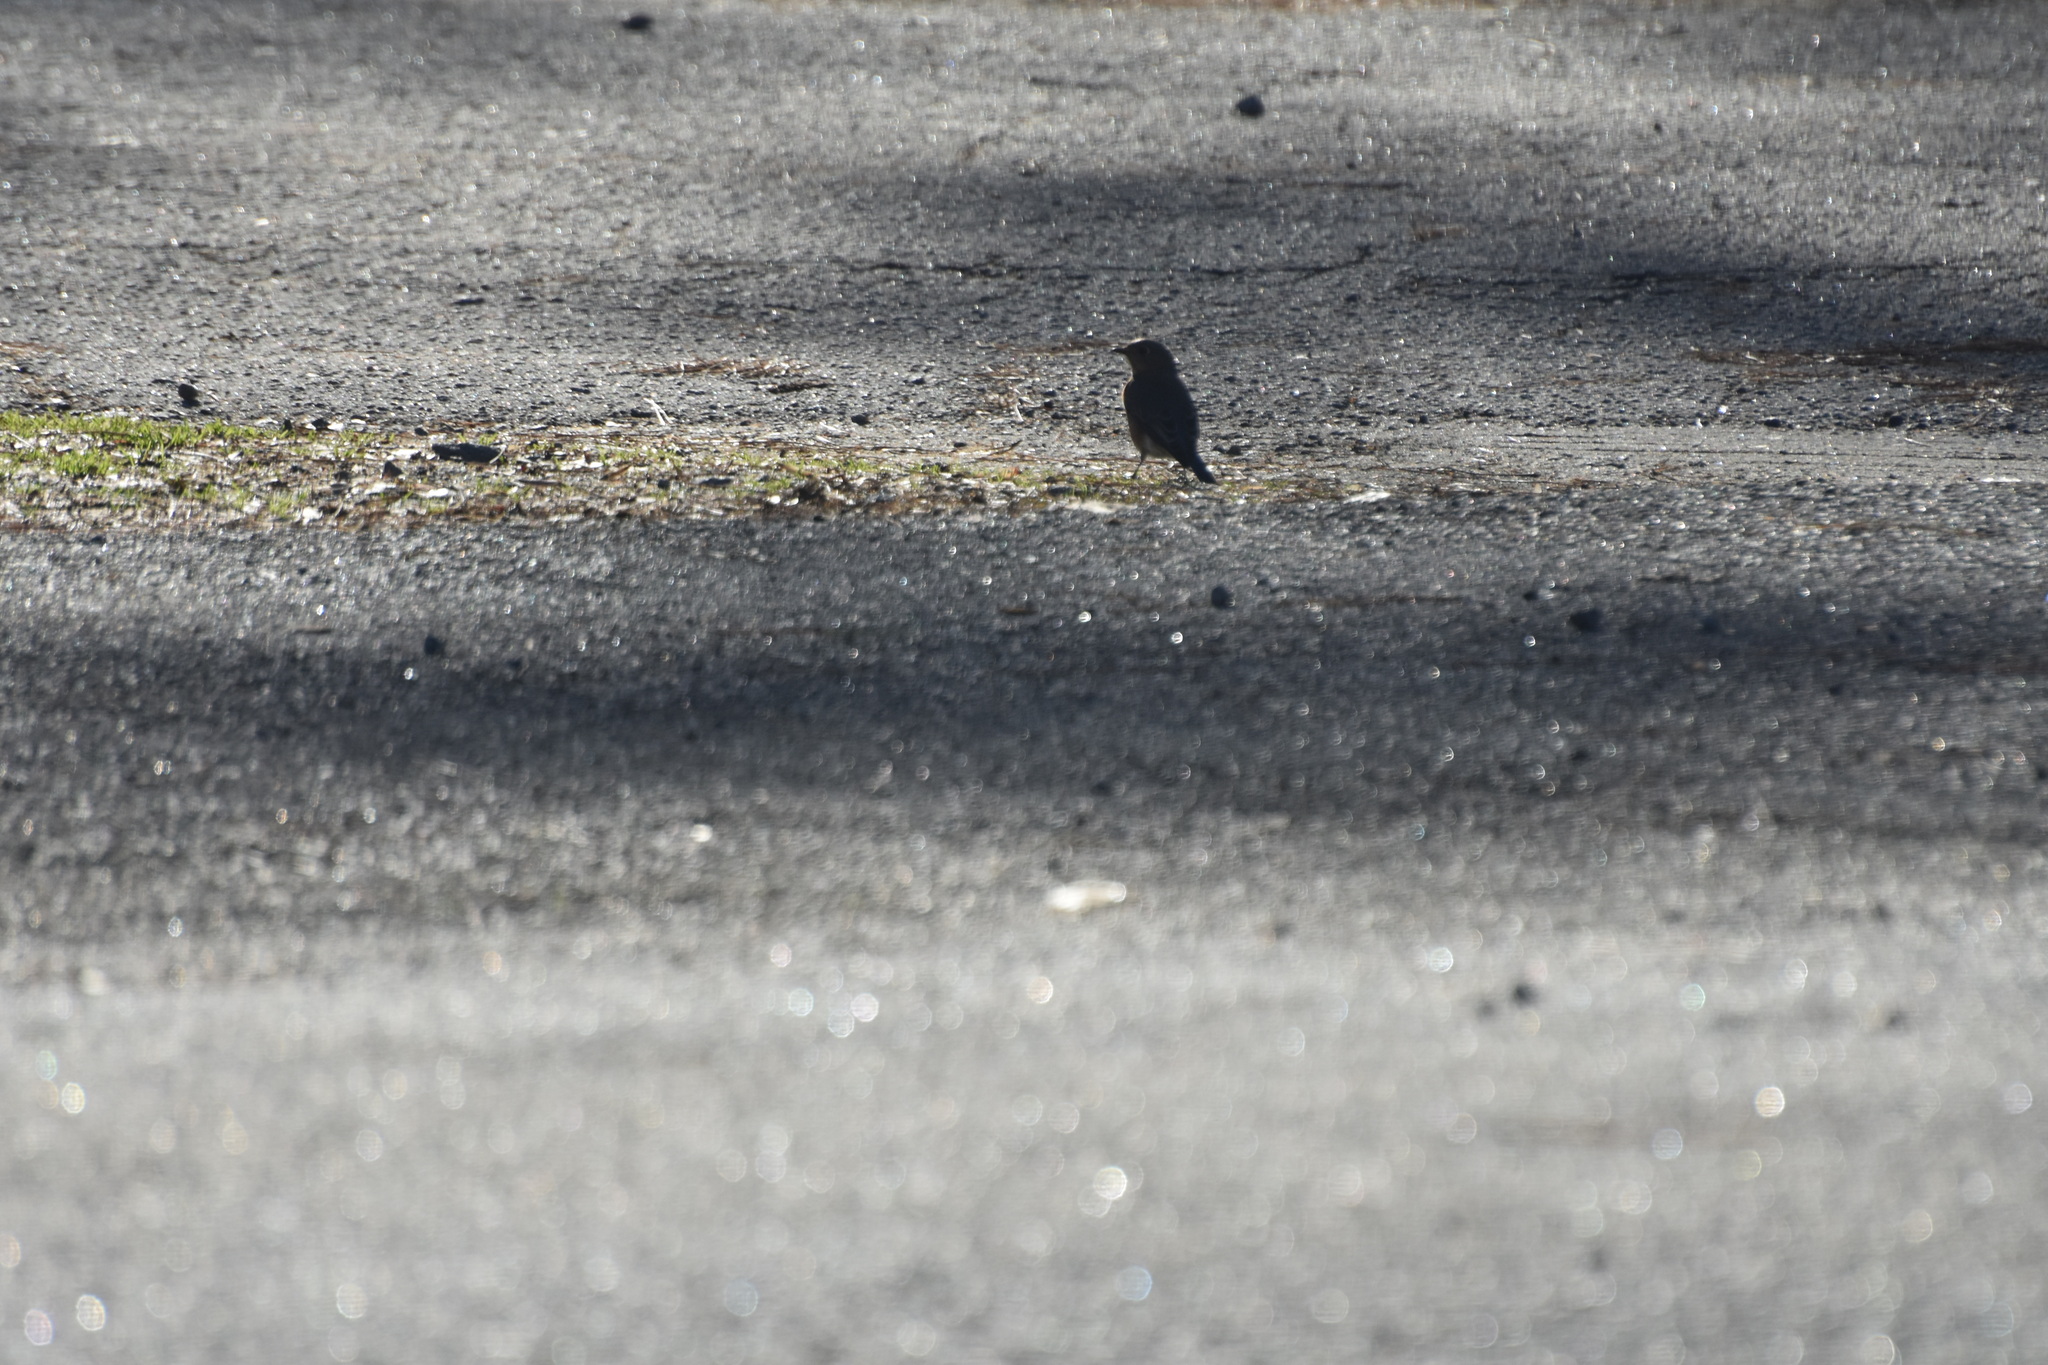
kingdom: Animalia
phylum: Chordata
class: Aves
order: Passeriformes
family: Turdidae
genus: Sialia
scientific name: Sialia sialis
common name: Eastern bluebird
